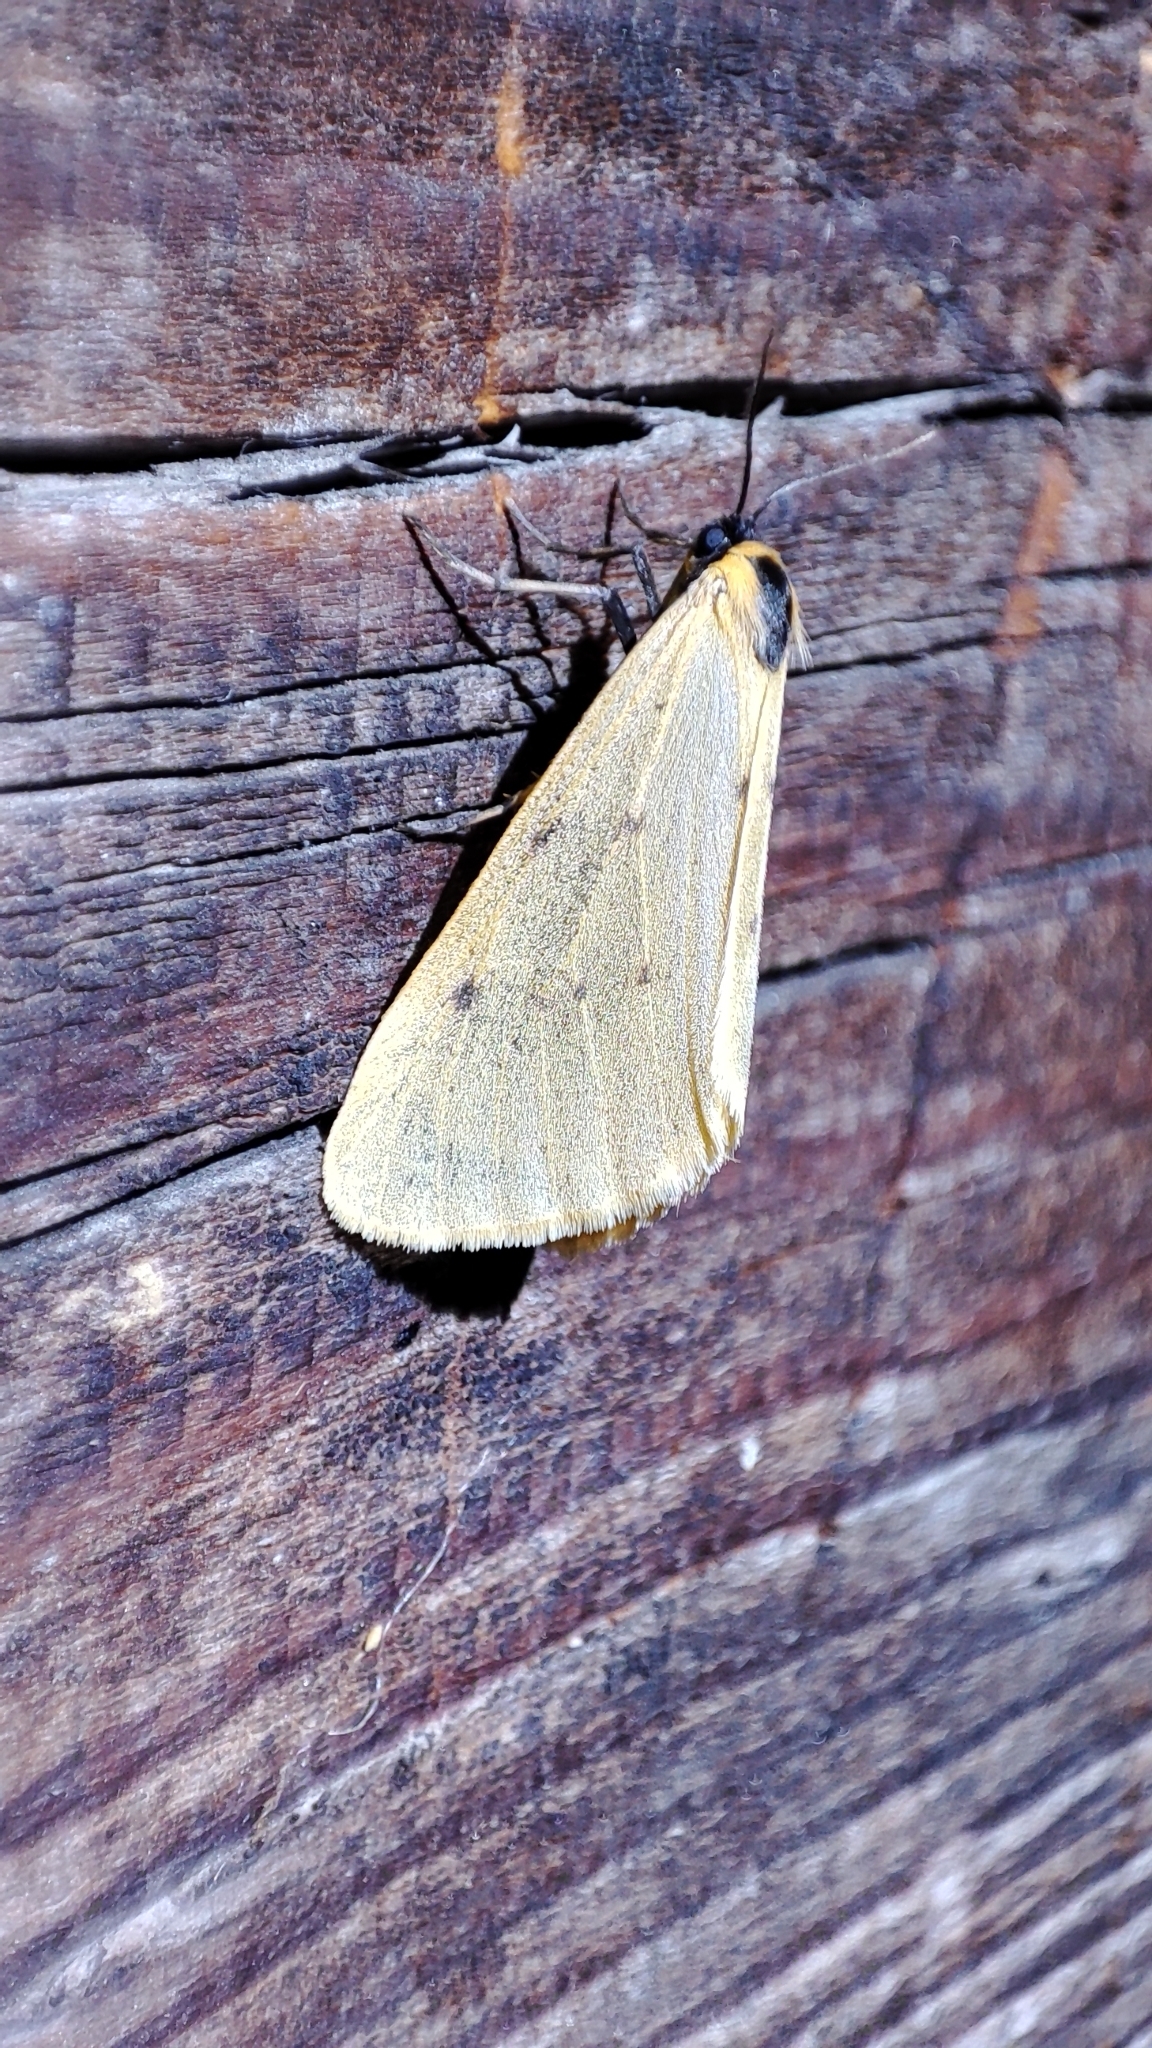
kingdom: Animalia
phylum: Arthropoda
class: Insecta
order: Lepidoptera
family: Erebidae
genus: Setina
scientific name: Setina irrorella
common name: Dew moth
